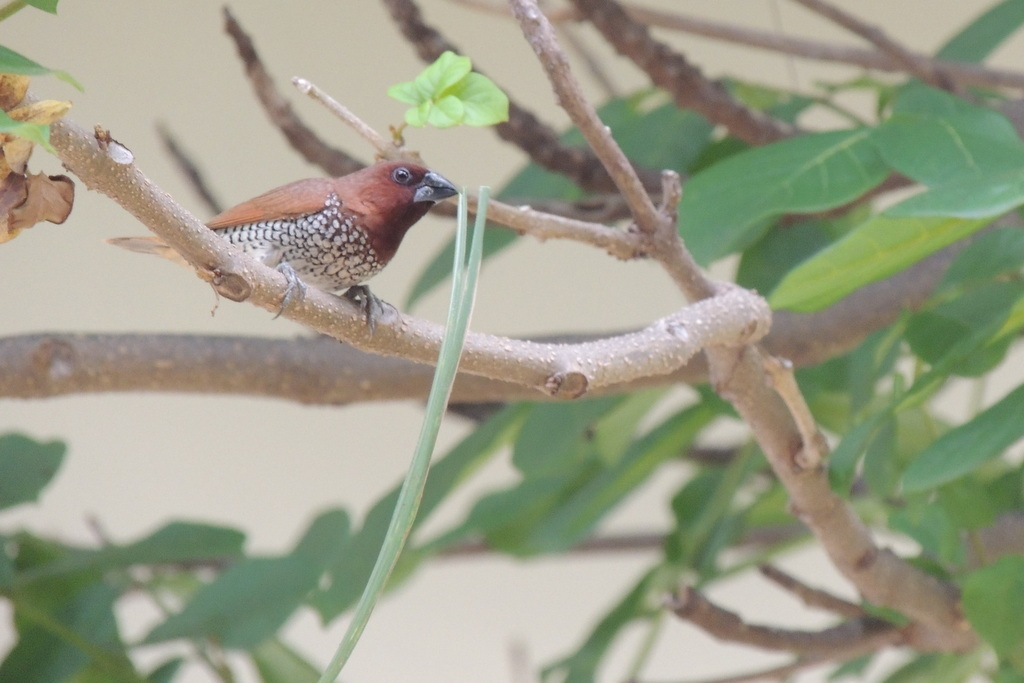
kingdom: Animalia
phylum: Chordata
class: Aves
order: Passeriformes
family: Estrildidae
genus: Lonchura
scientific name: Lonchura punctulata
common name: Scaly-breasted munia
